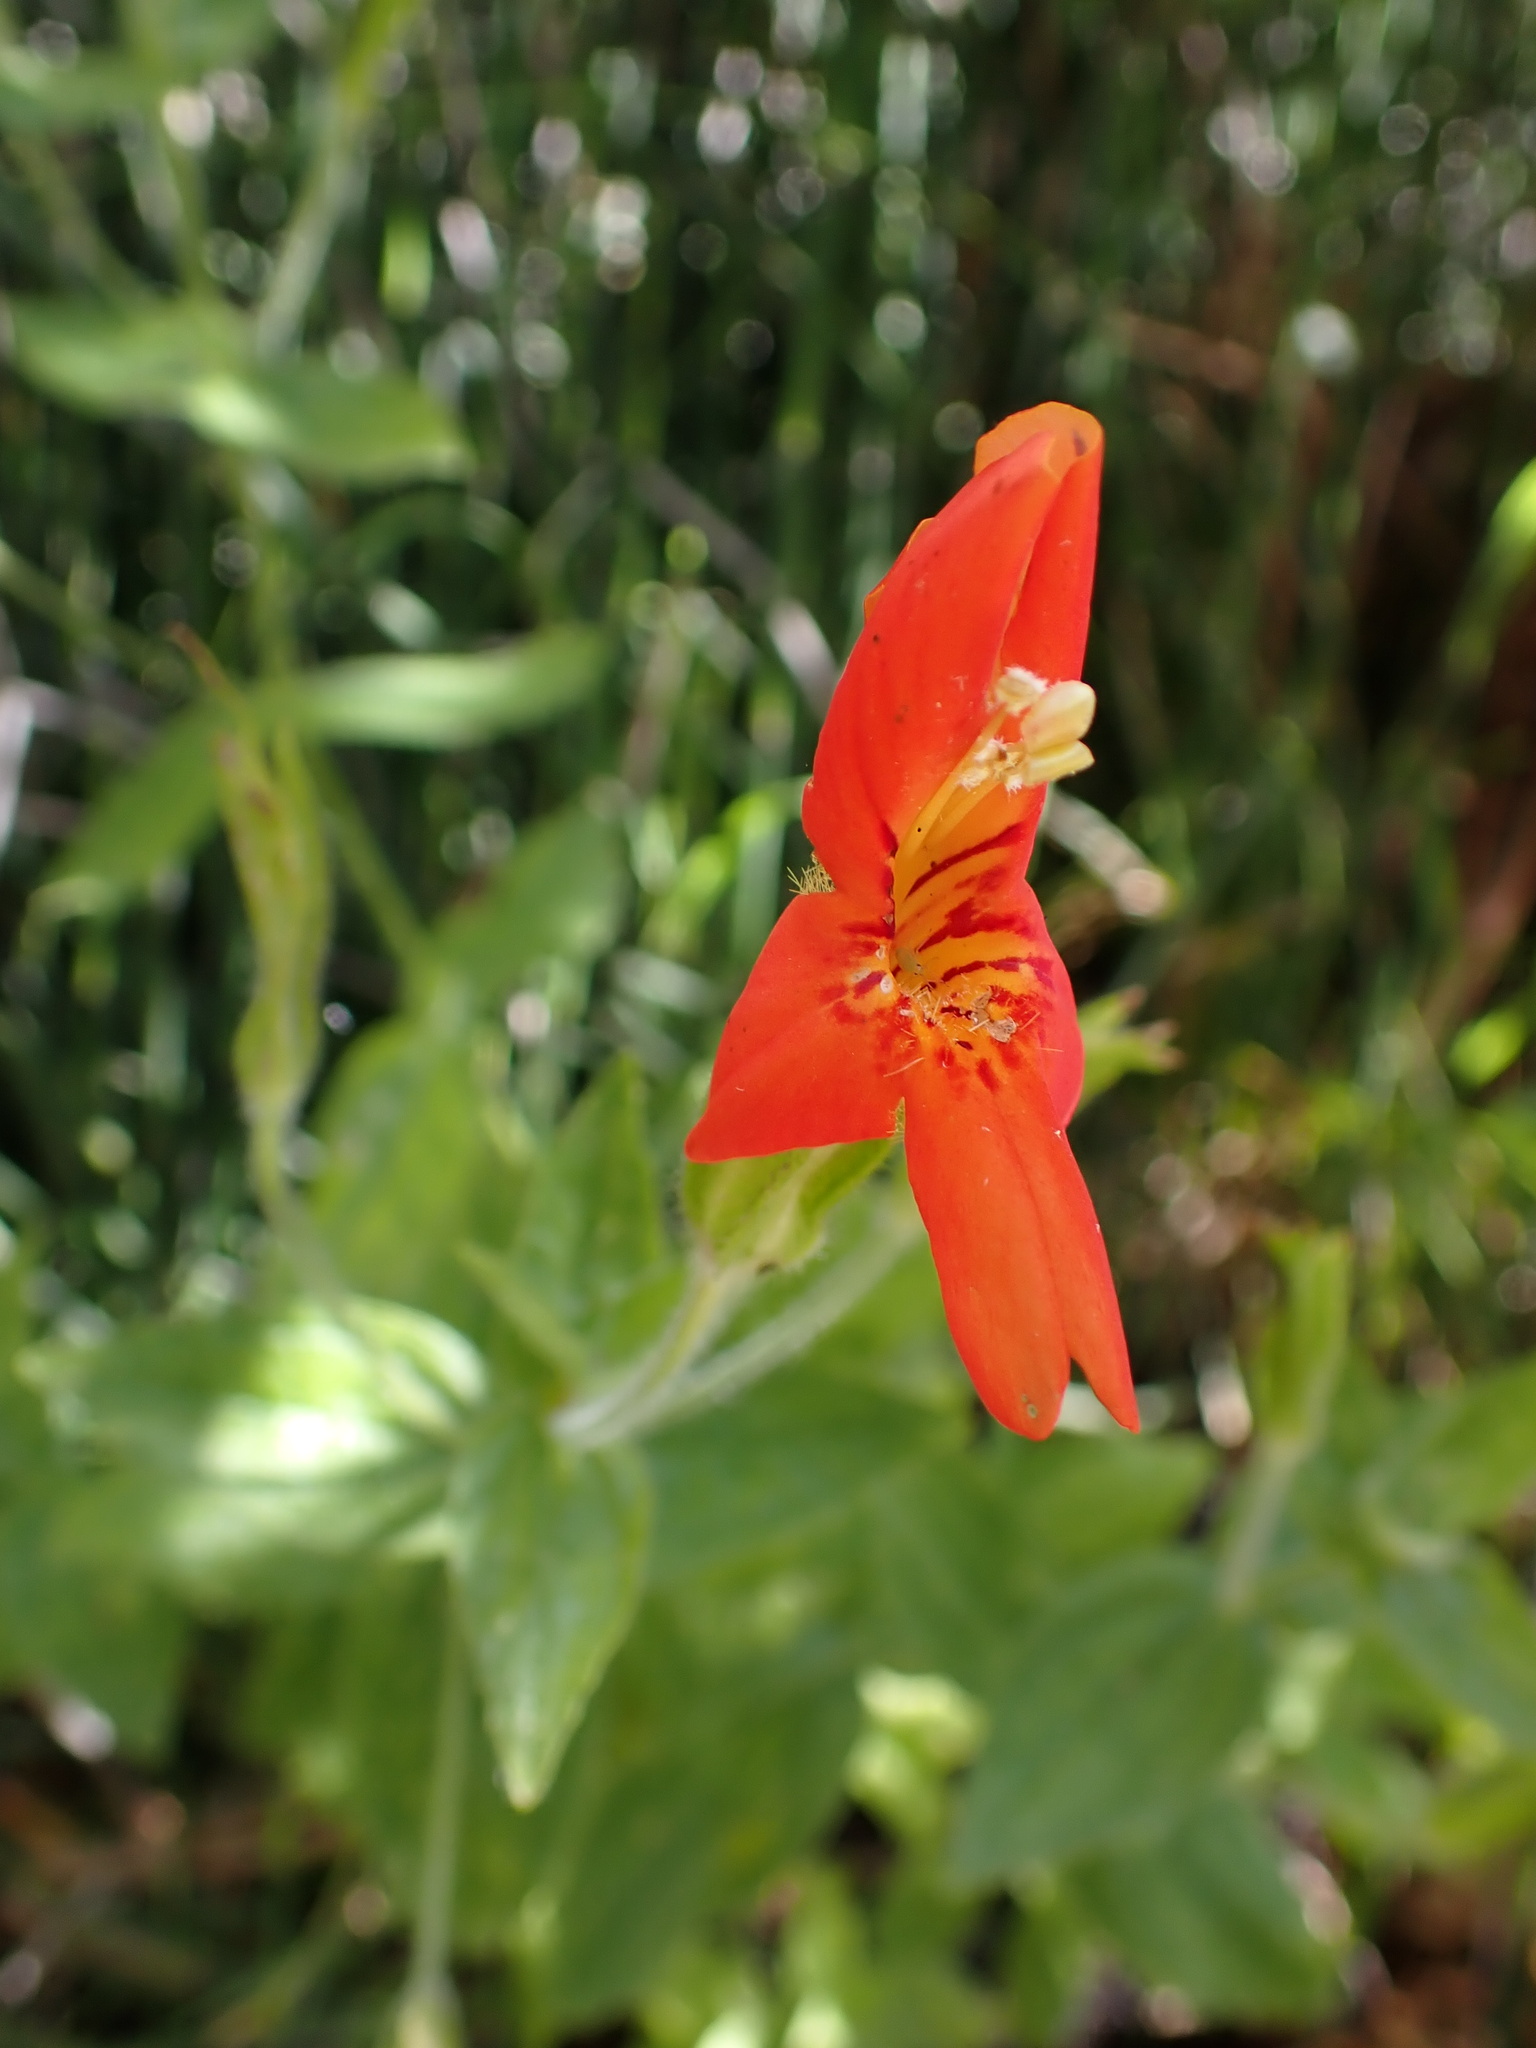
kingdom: Plantae
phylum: Tracheophyta
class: Magnoliopsida
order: Lamiales
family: Phrymaceae
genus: Erythranthe
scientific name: Erythranthe cardinalis
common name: Scarlet monkey-flower
